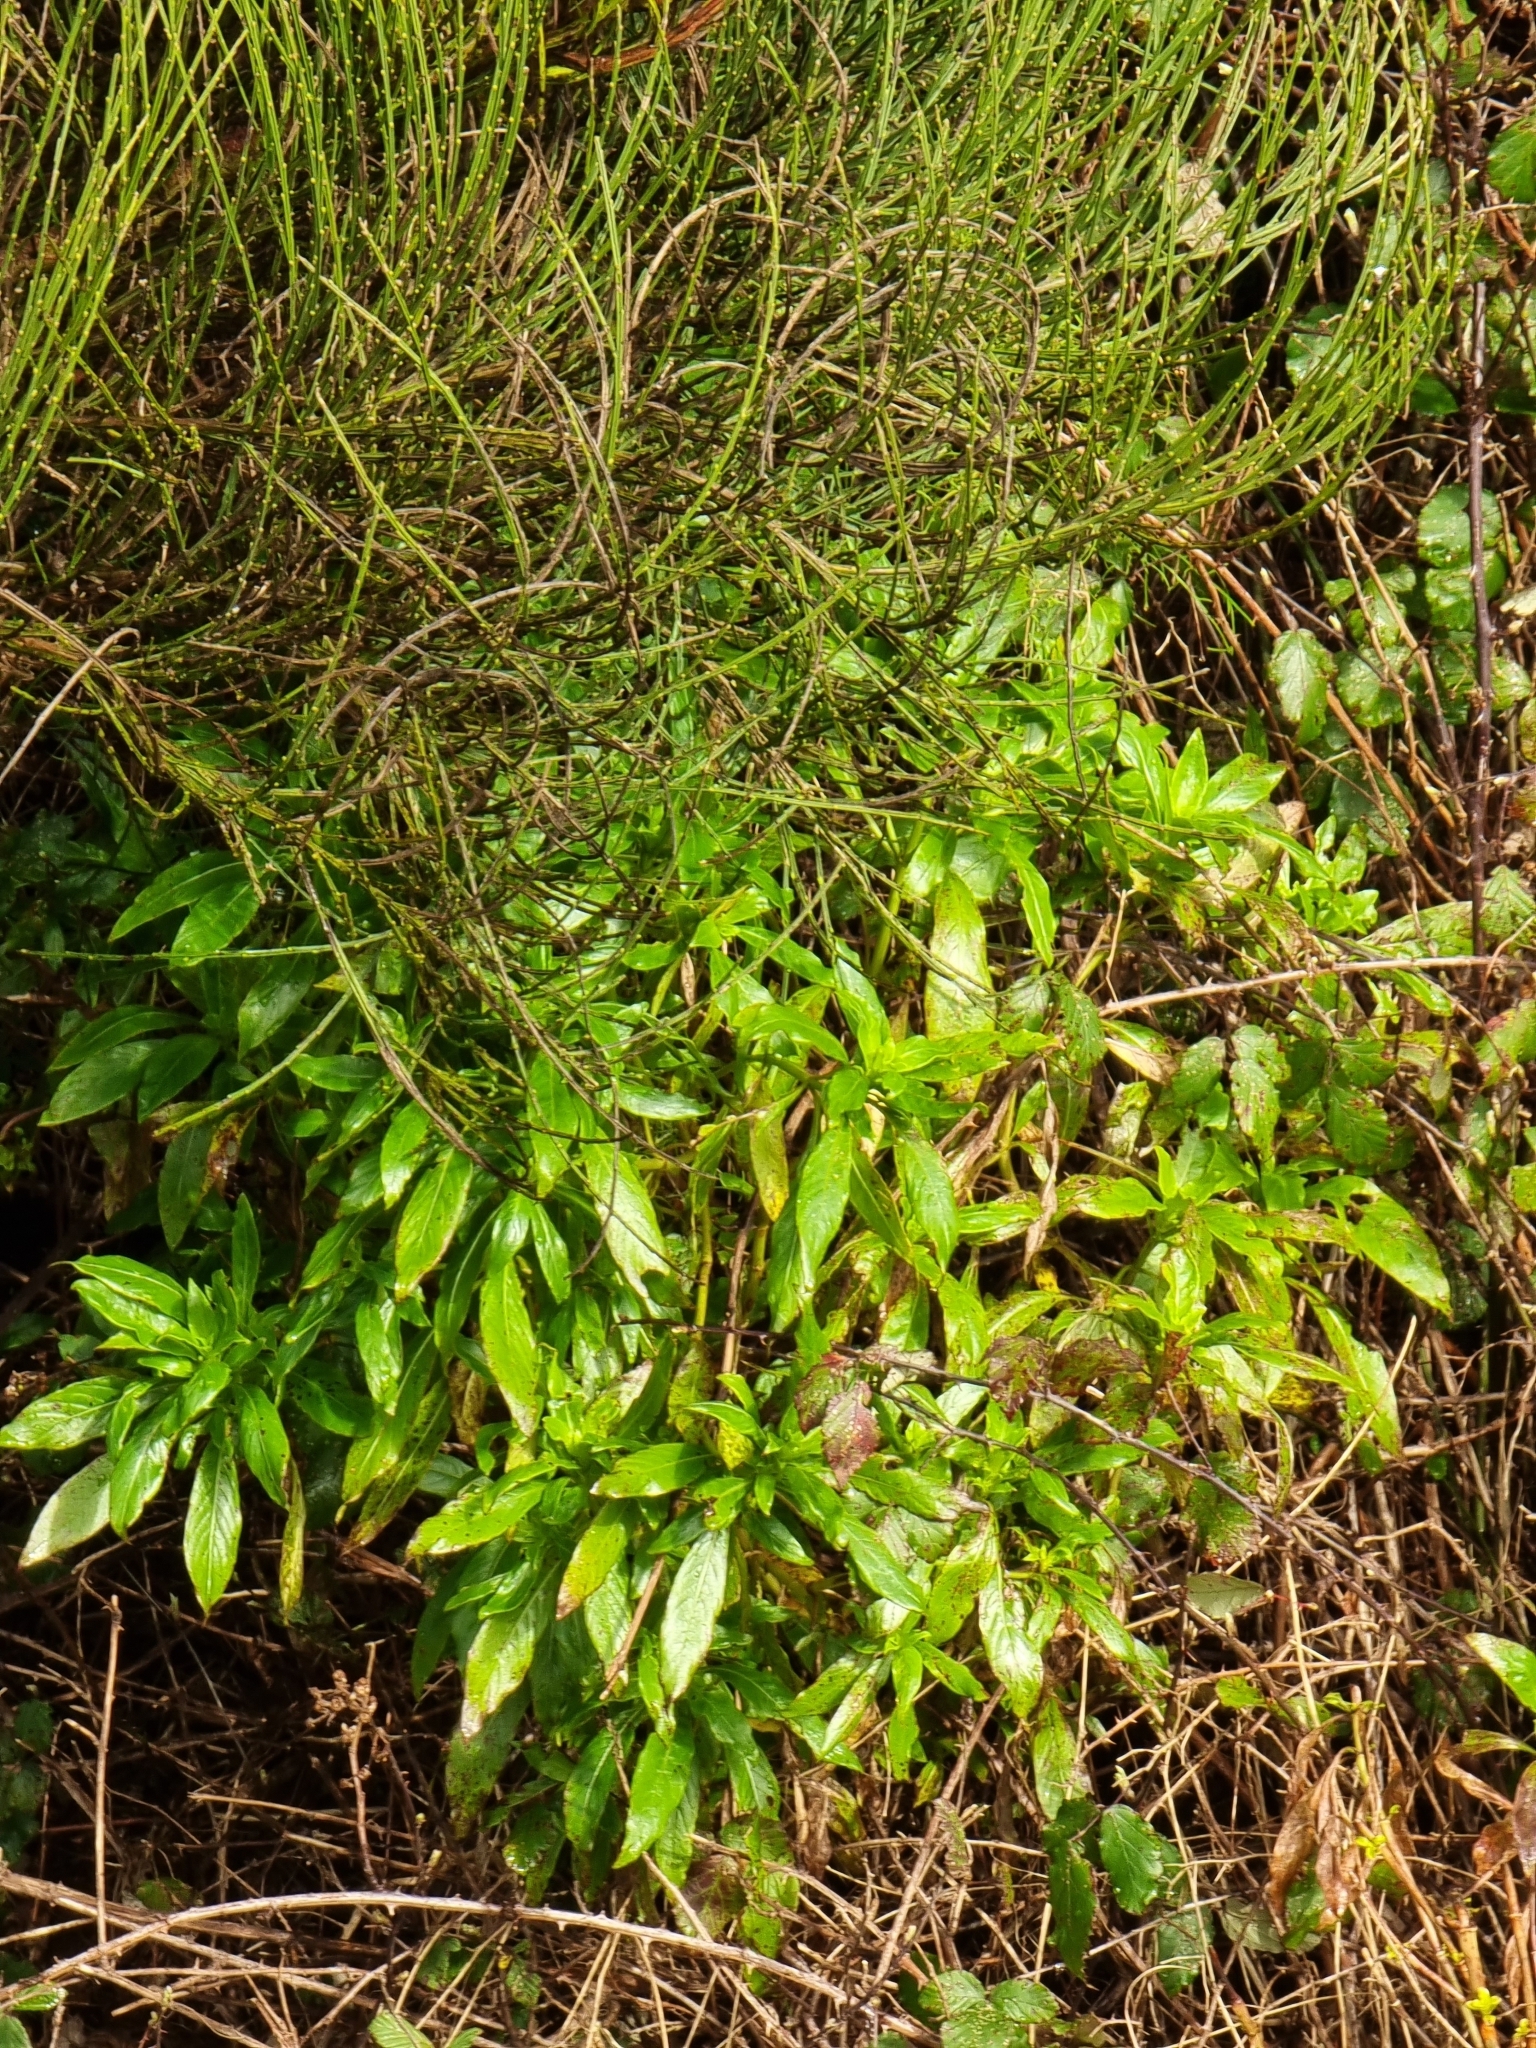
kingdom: Plantae
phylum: Tracheophyta
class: Magnoliopsida
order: Gentianales
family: Rubiaceae
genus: Phyllis
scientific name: Phyllis nobla
